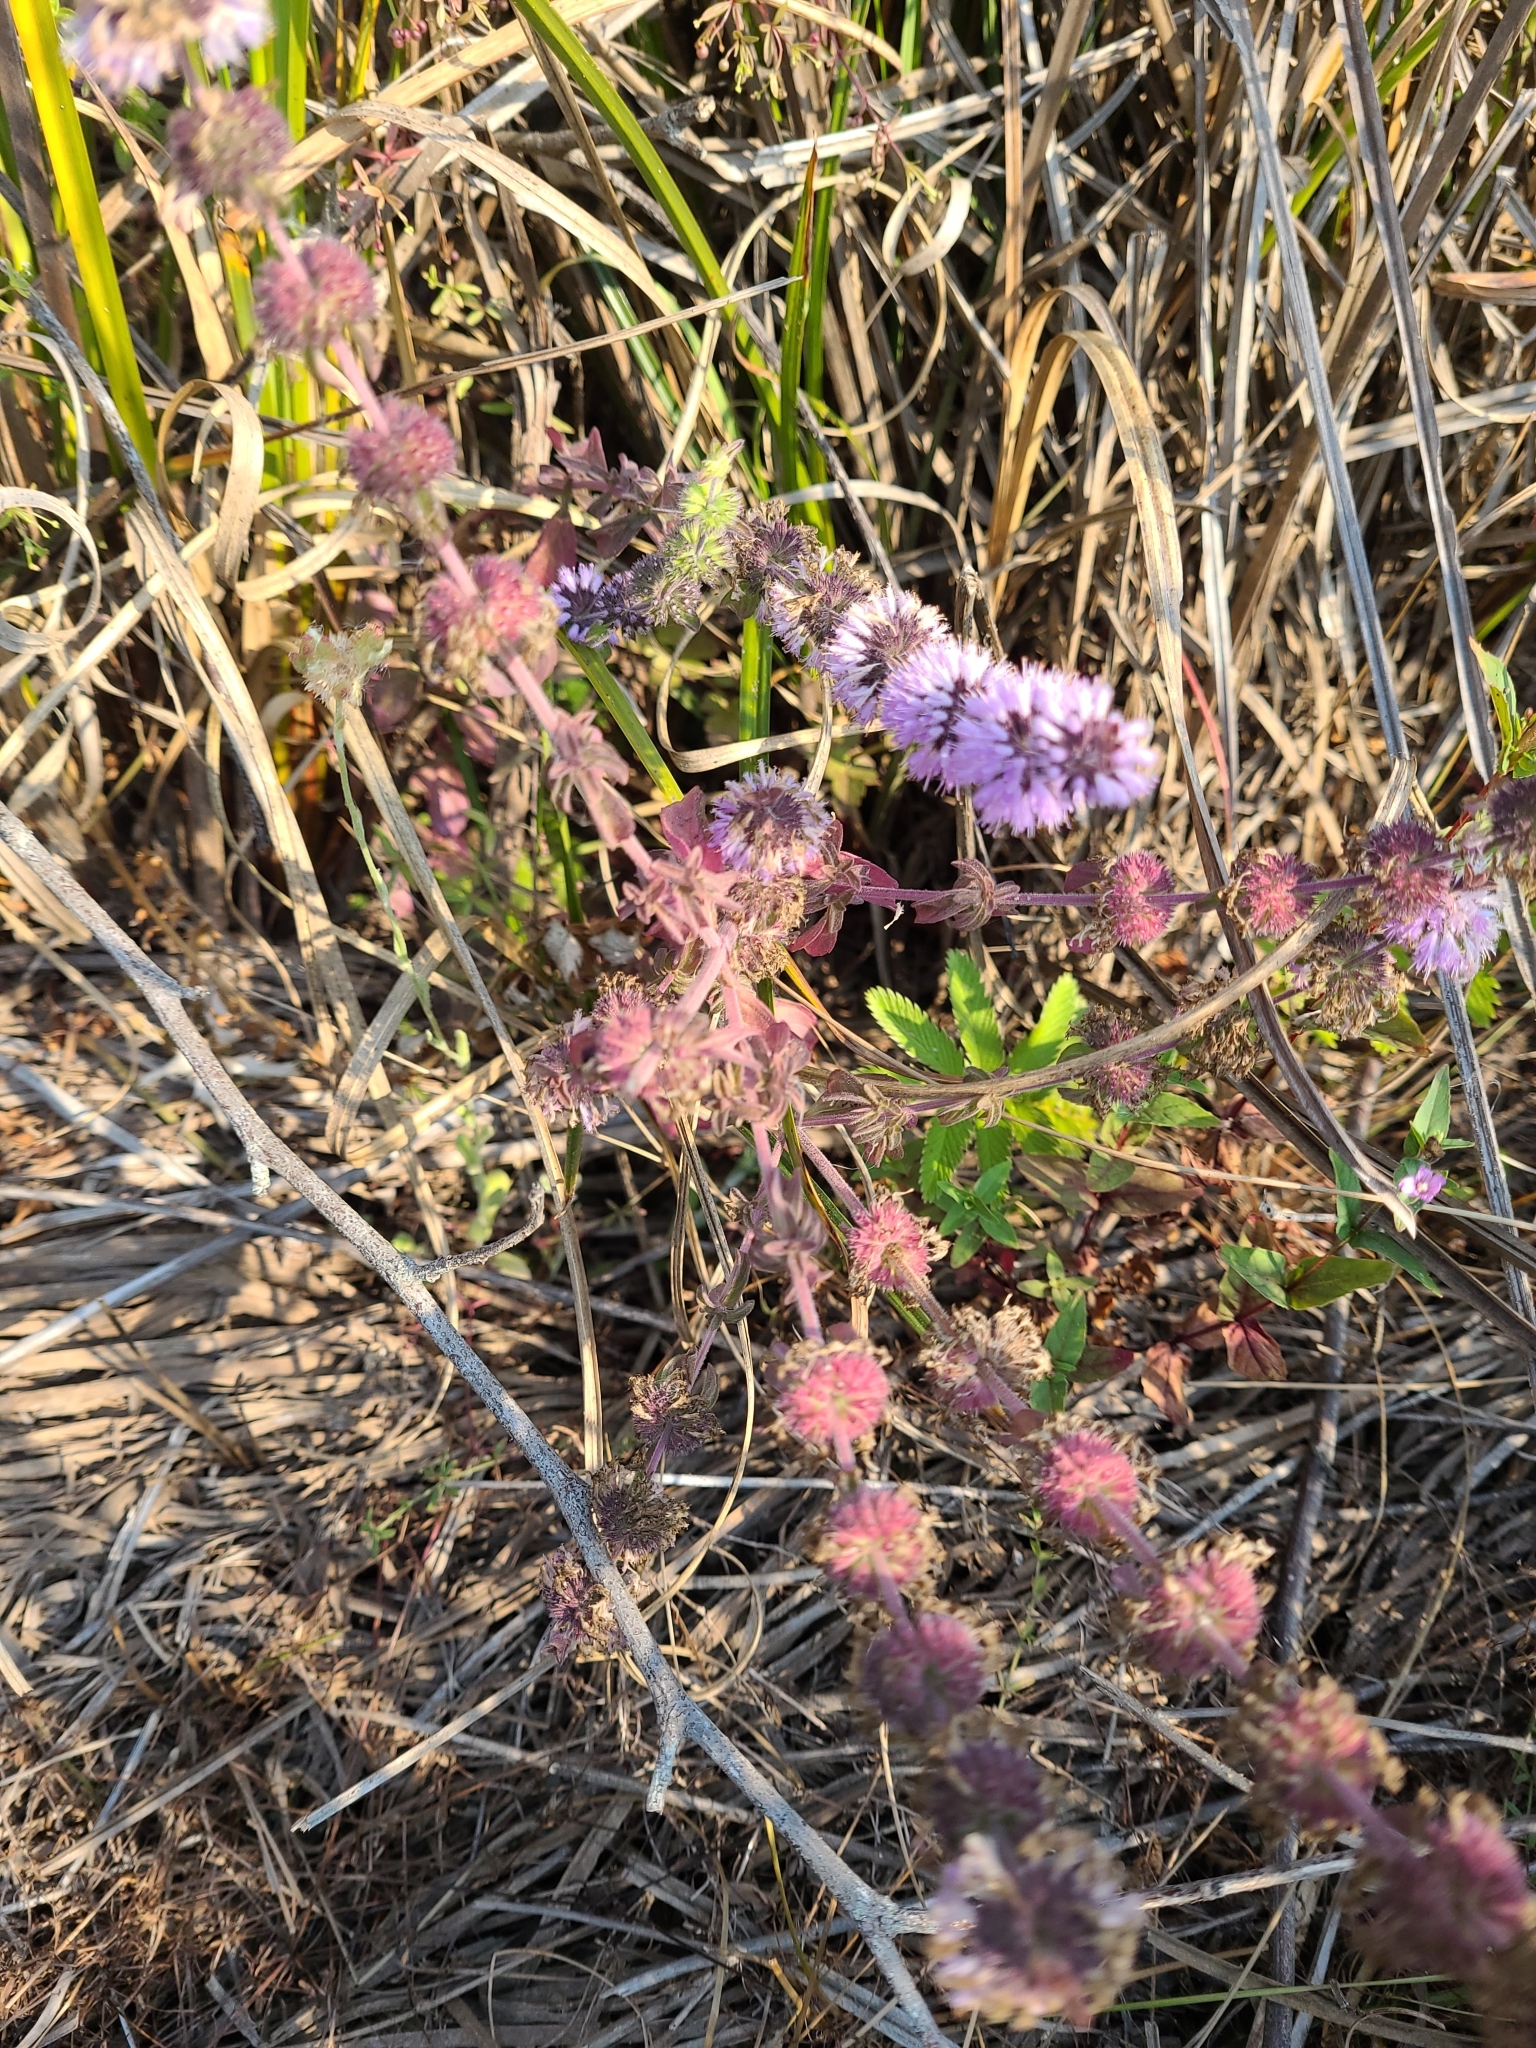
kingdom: Plantae
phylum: Tracheophyta
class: Magnoliopsida
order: Lamiales
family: Lamiaceae
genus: Mentha
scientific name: Mentha pulegium
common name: Pennyroyal
